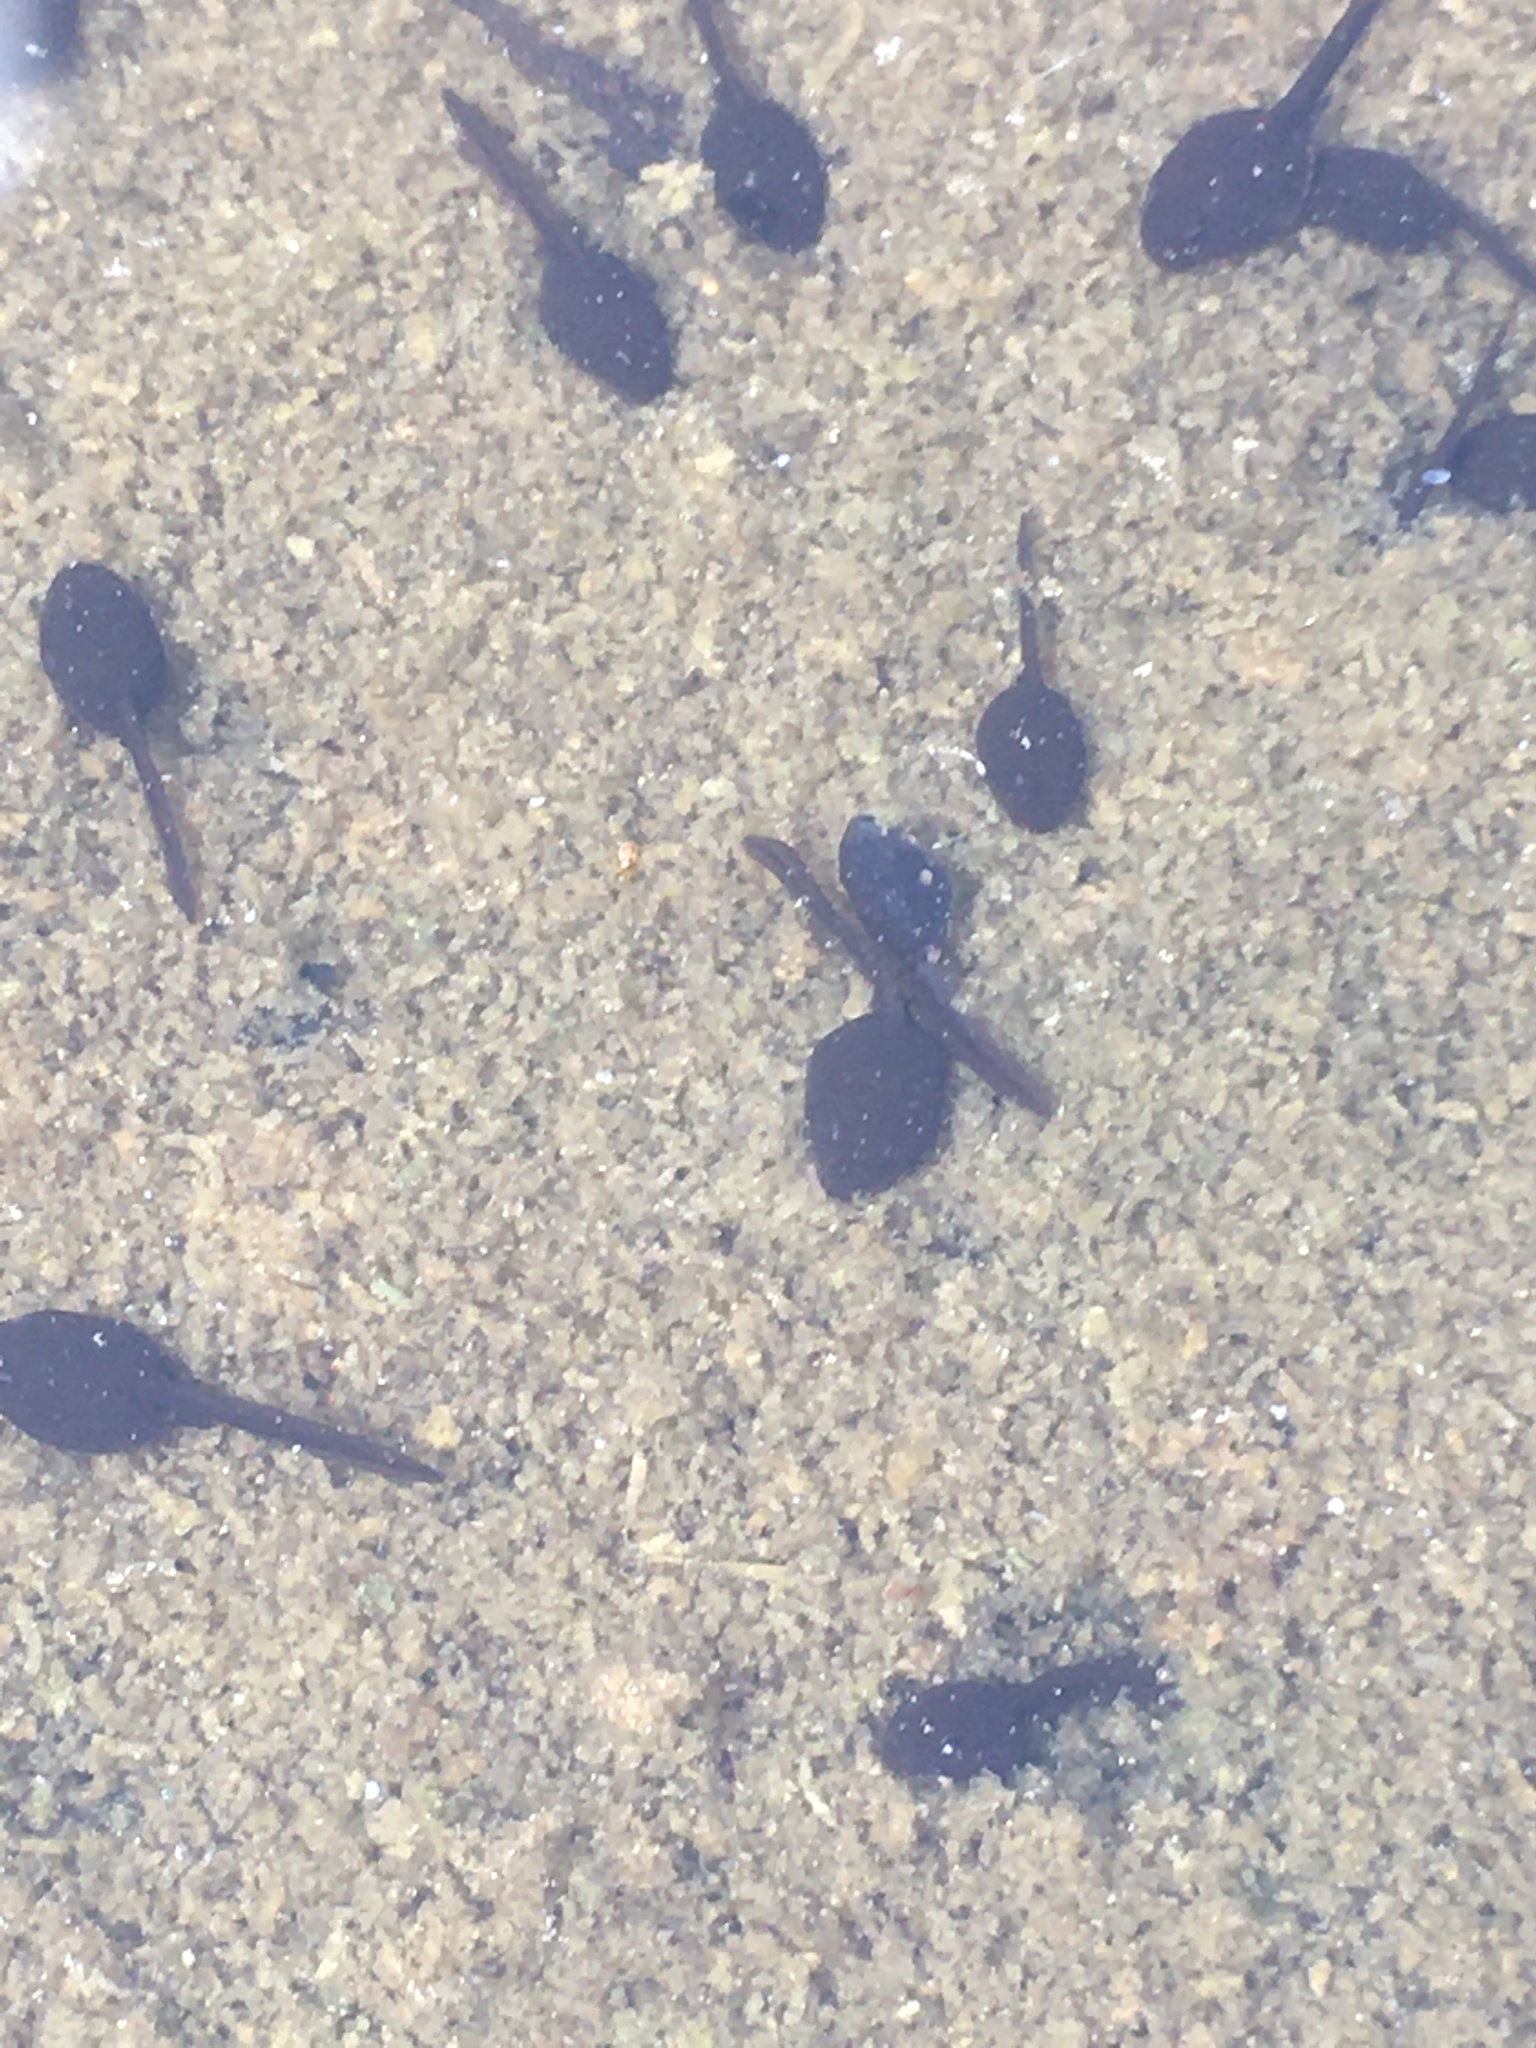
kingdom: Animalia
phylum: Chordata
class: Amphibia
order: Anura
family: Bufonidae
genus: Anaxyrus
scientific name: Anaxyrus americanus
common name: American toad
